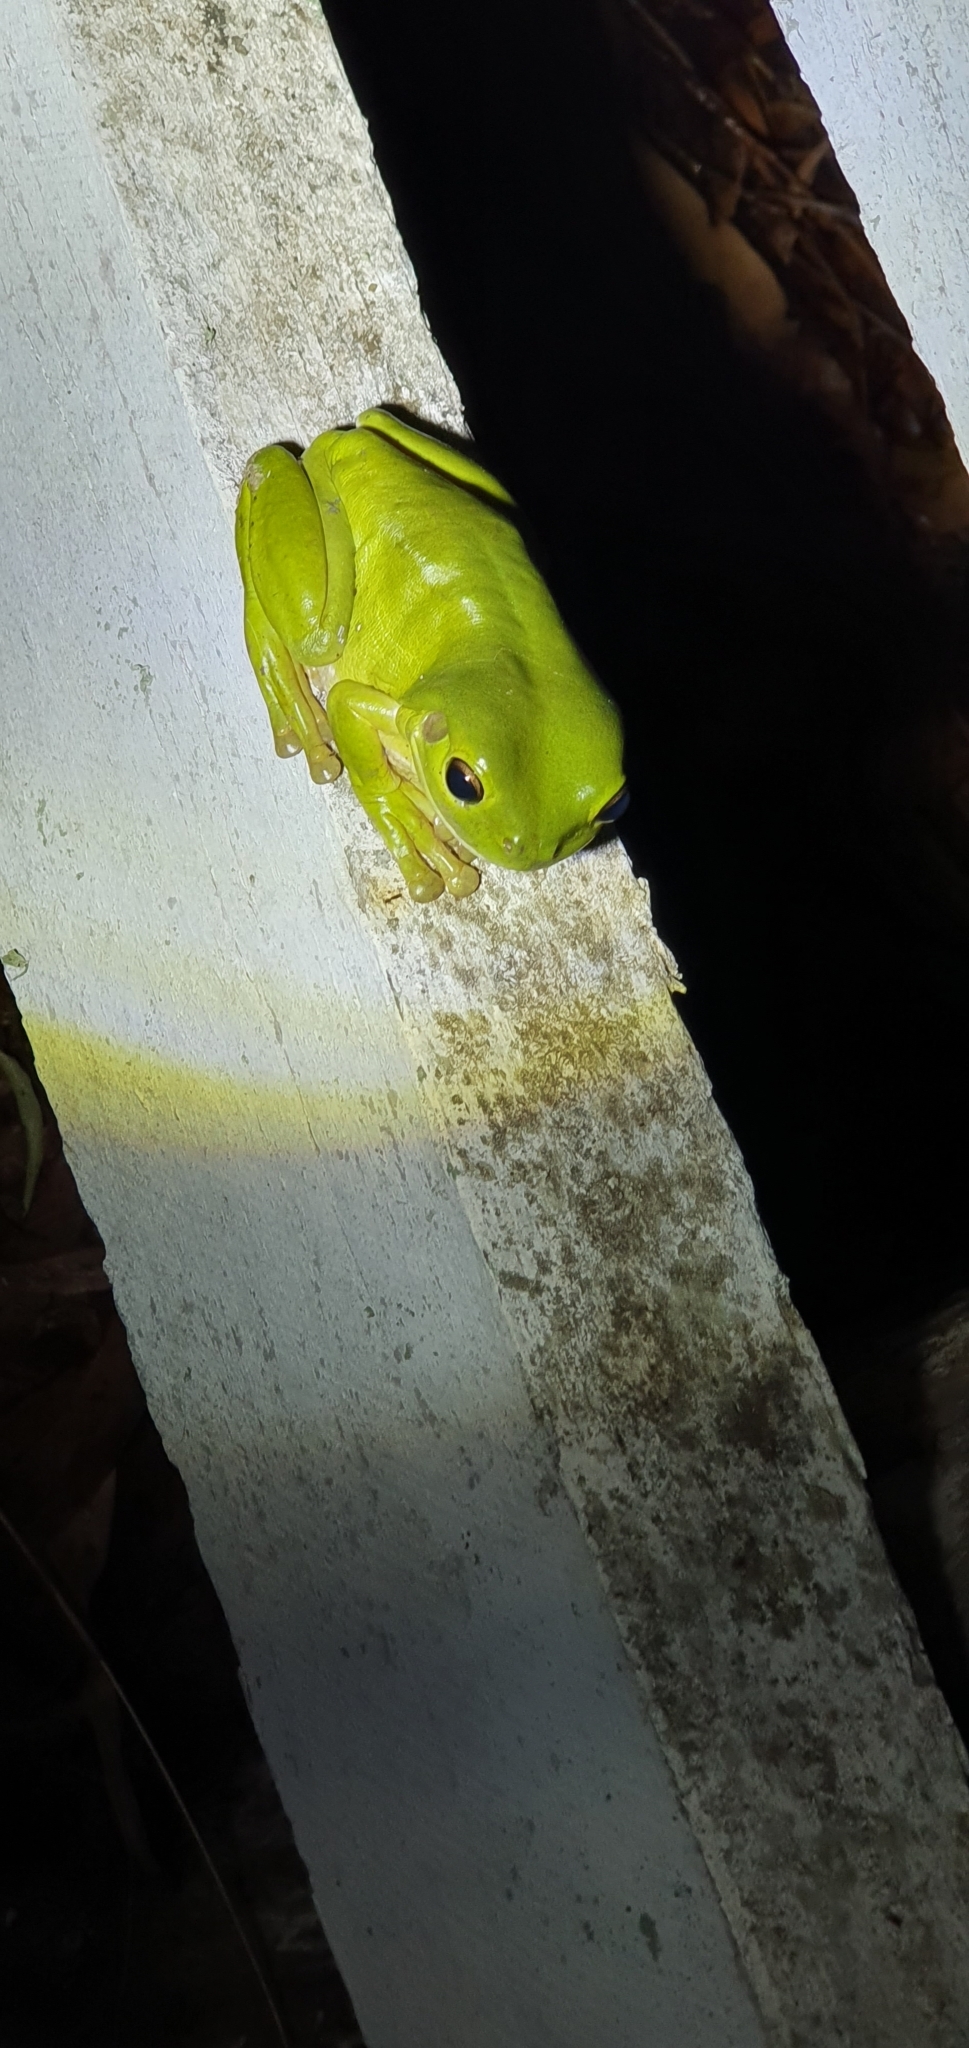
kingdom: Animalia
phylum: Chordata
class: Amphibia
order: Anura
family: Pelodryadidae
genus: Ranoidea
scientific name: Ranoidea caerulea
